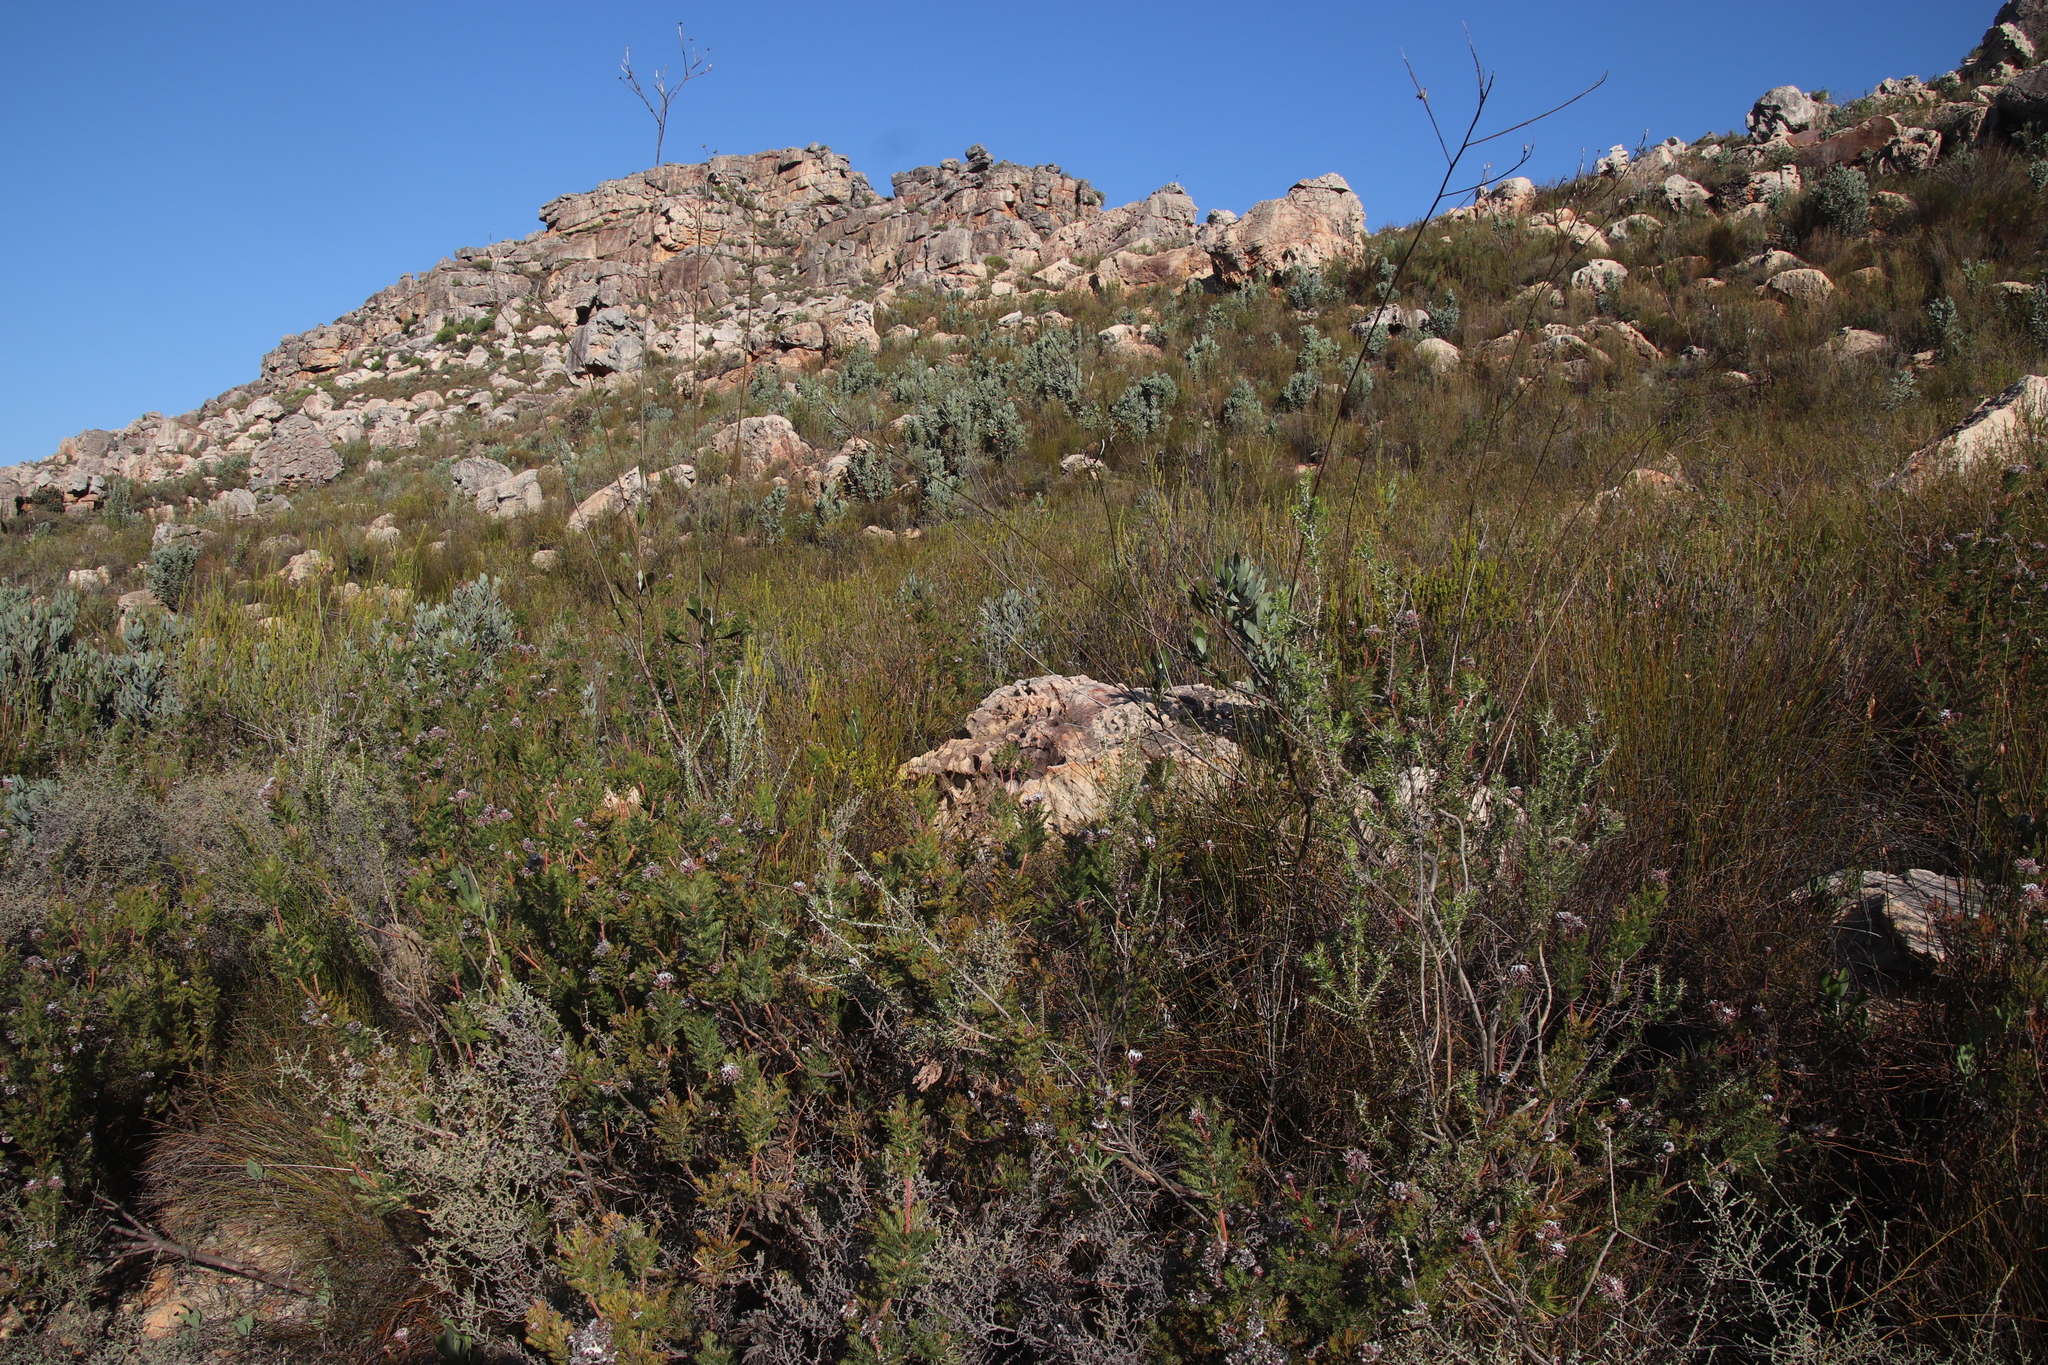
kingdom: Plantae
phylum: Tracheophyta
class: Magnoliopsida
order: Asterales
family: Asteraceae
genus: Osteospermum
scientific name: Osteospermum junceum
